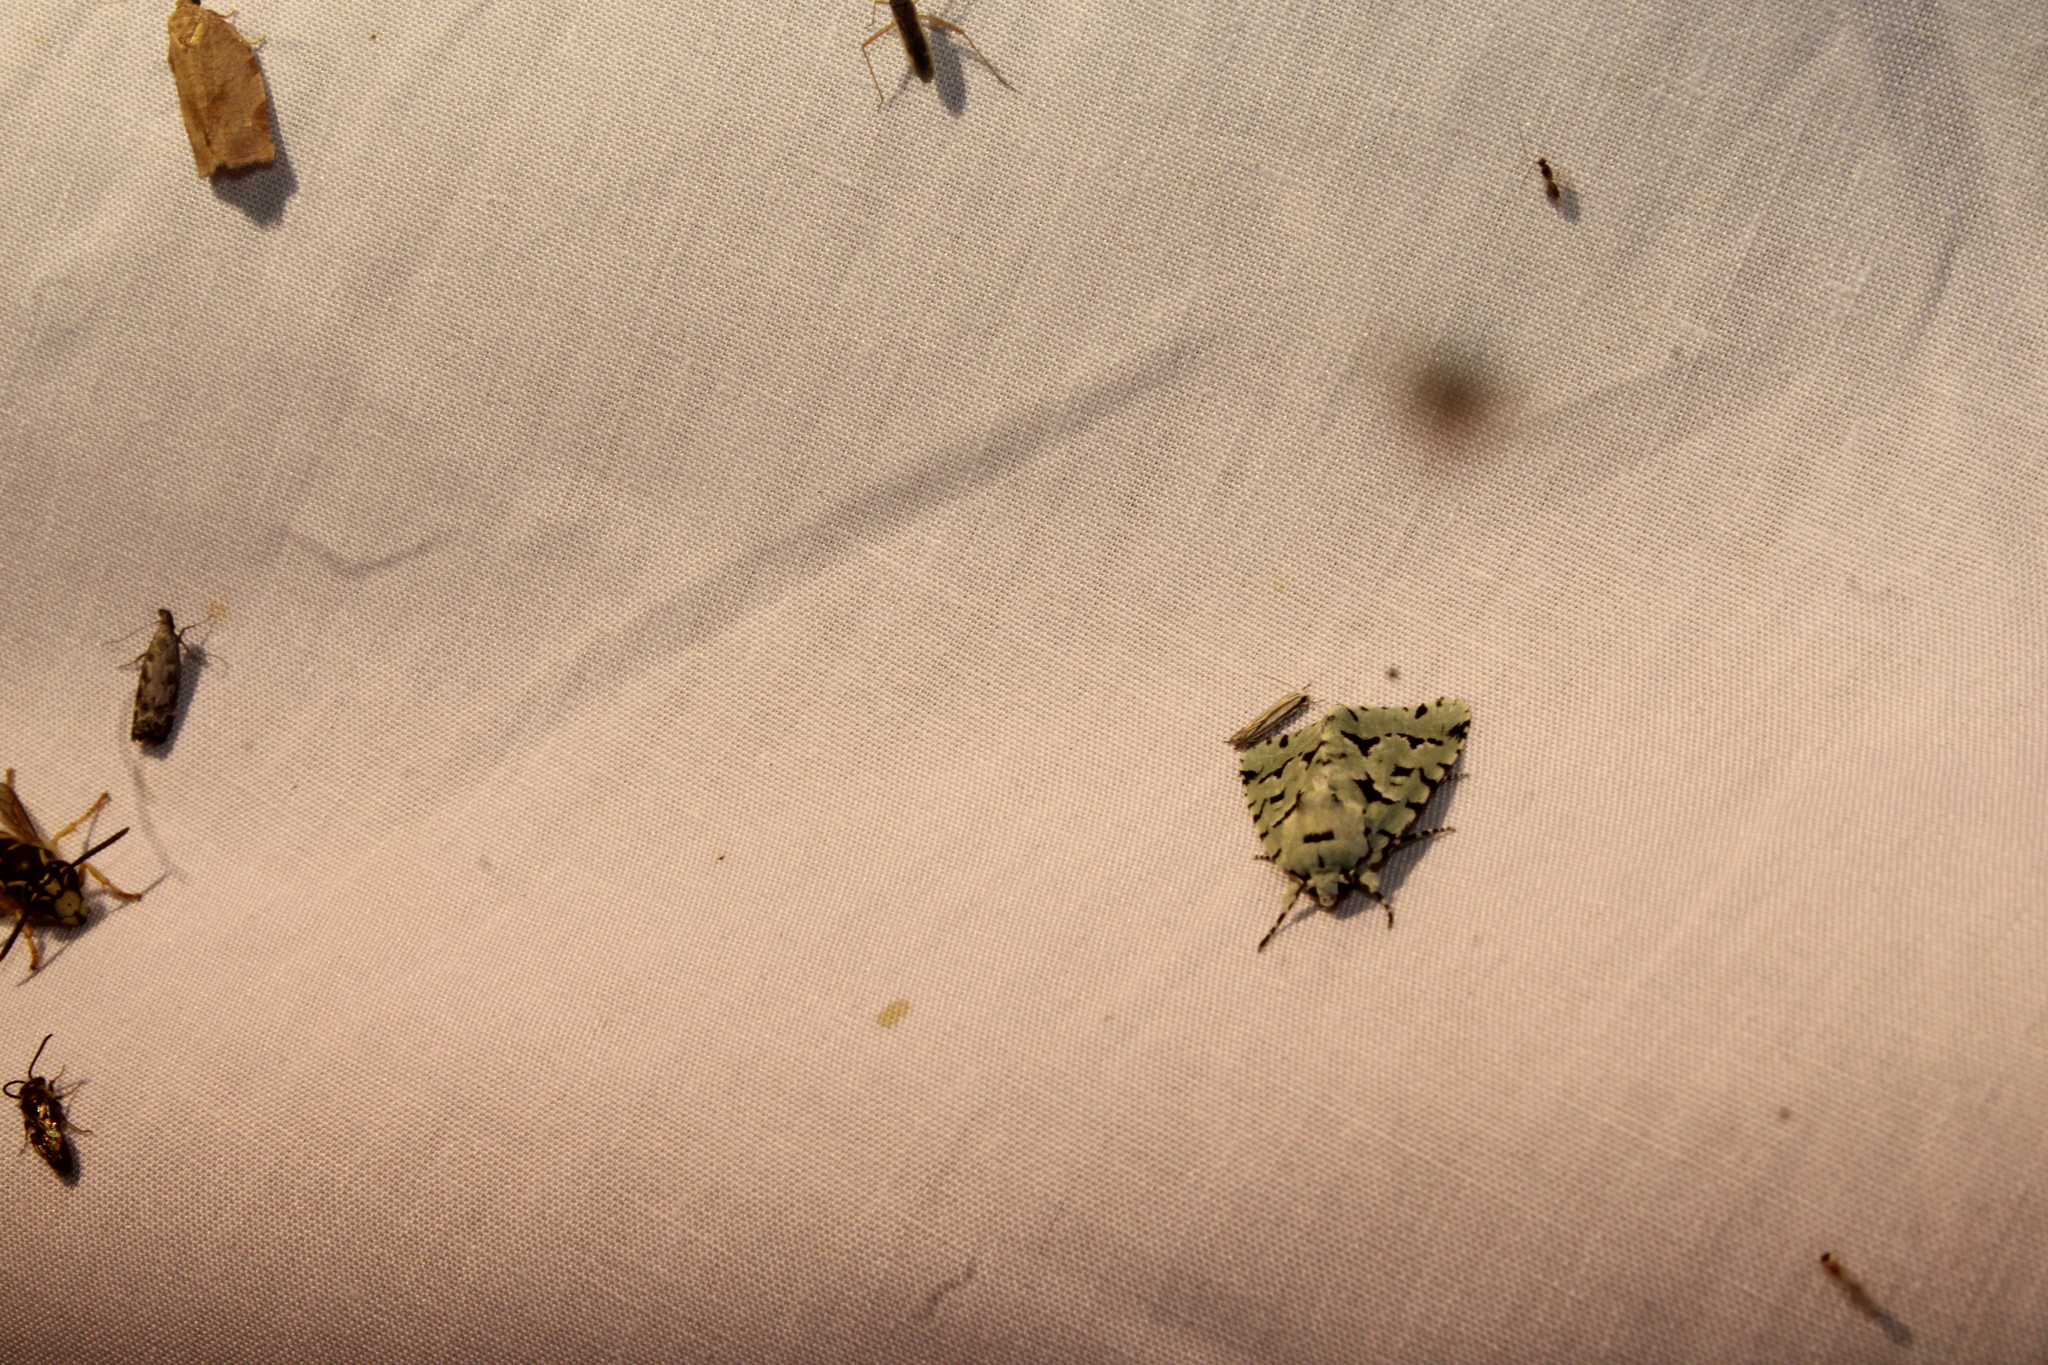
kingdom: Animalia
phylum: Arthropoda
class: Insecta
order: Lepidoptera
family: Noctuidae
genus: Acronicta
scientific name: Acronicta fallax
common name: Green marvel
